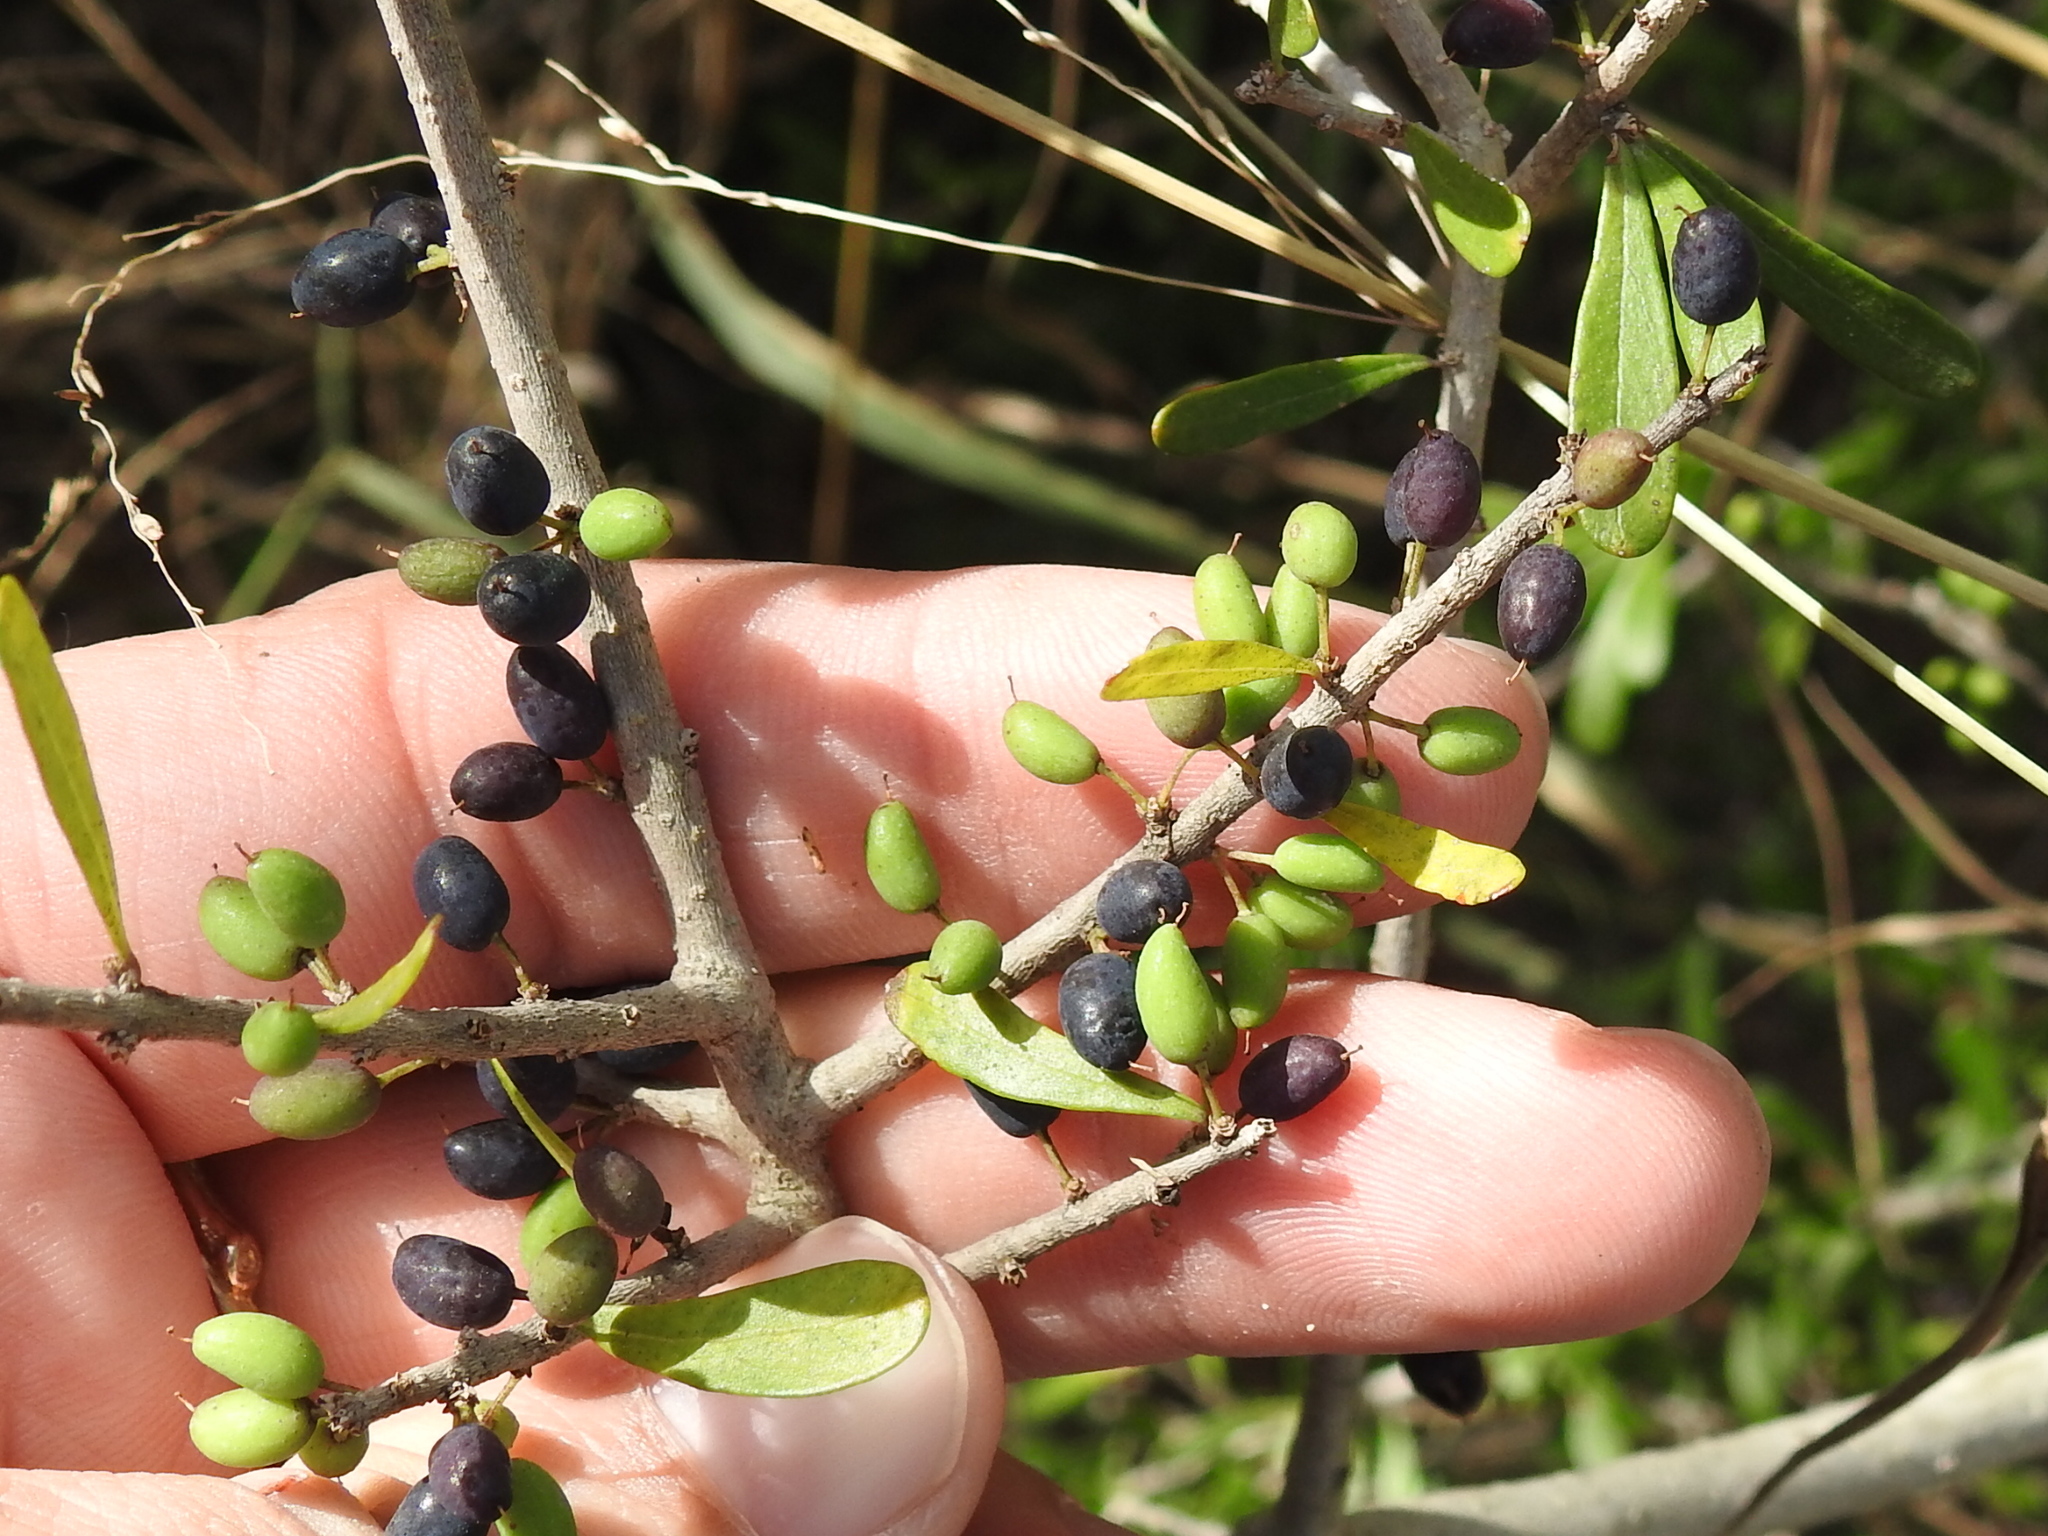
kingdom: Plantae
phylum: Tracheophyta
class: Magnoliopsida
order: Lamiales
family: Oleaceae
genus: Forestiera
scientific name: Forestiera angustifolia
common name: Elbowbush
